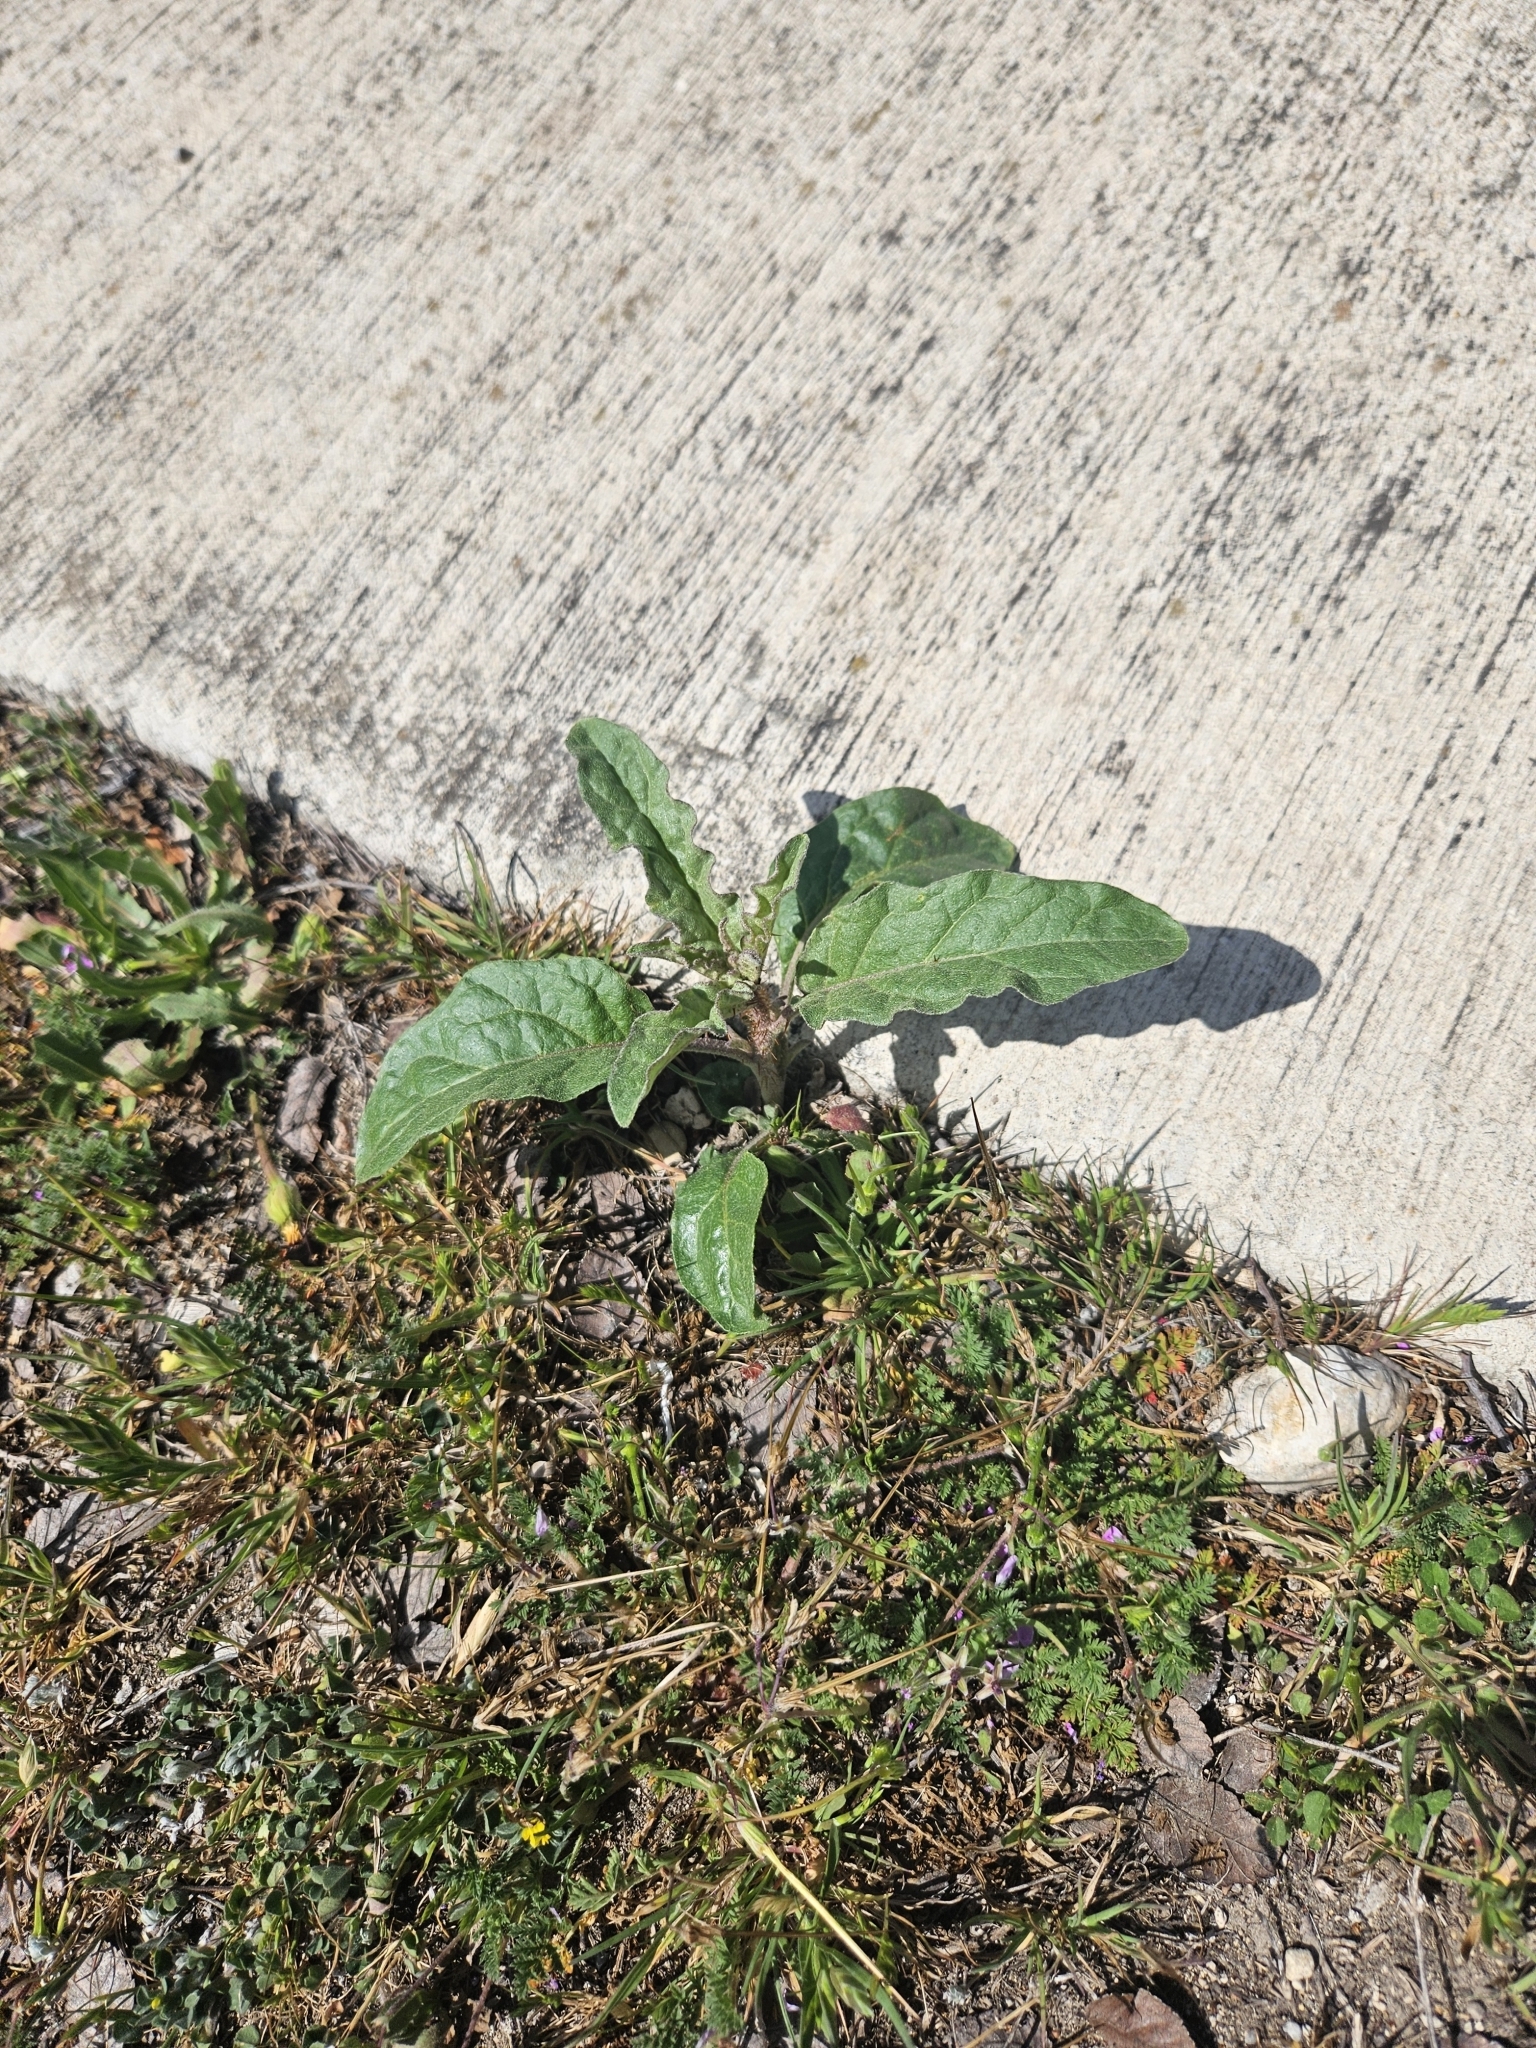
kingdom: Plantae
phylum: Tracheophyta
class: Magnoliopsida
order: Solanales
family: Solanaceae
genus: Solanum
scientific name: Solanum elaeagnifolium
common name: Silverleaf nightshade
